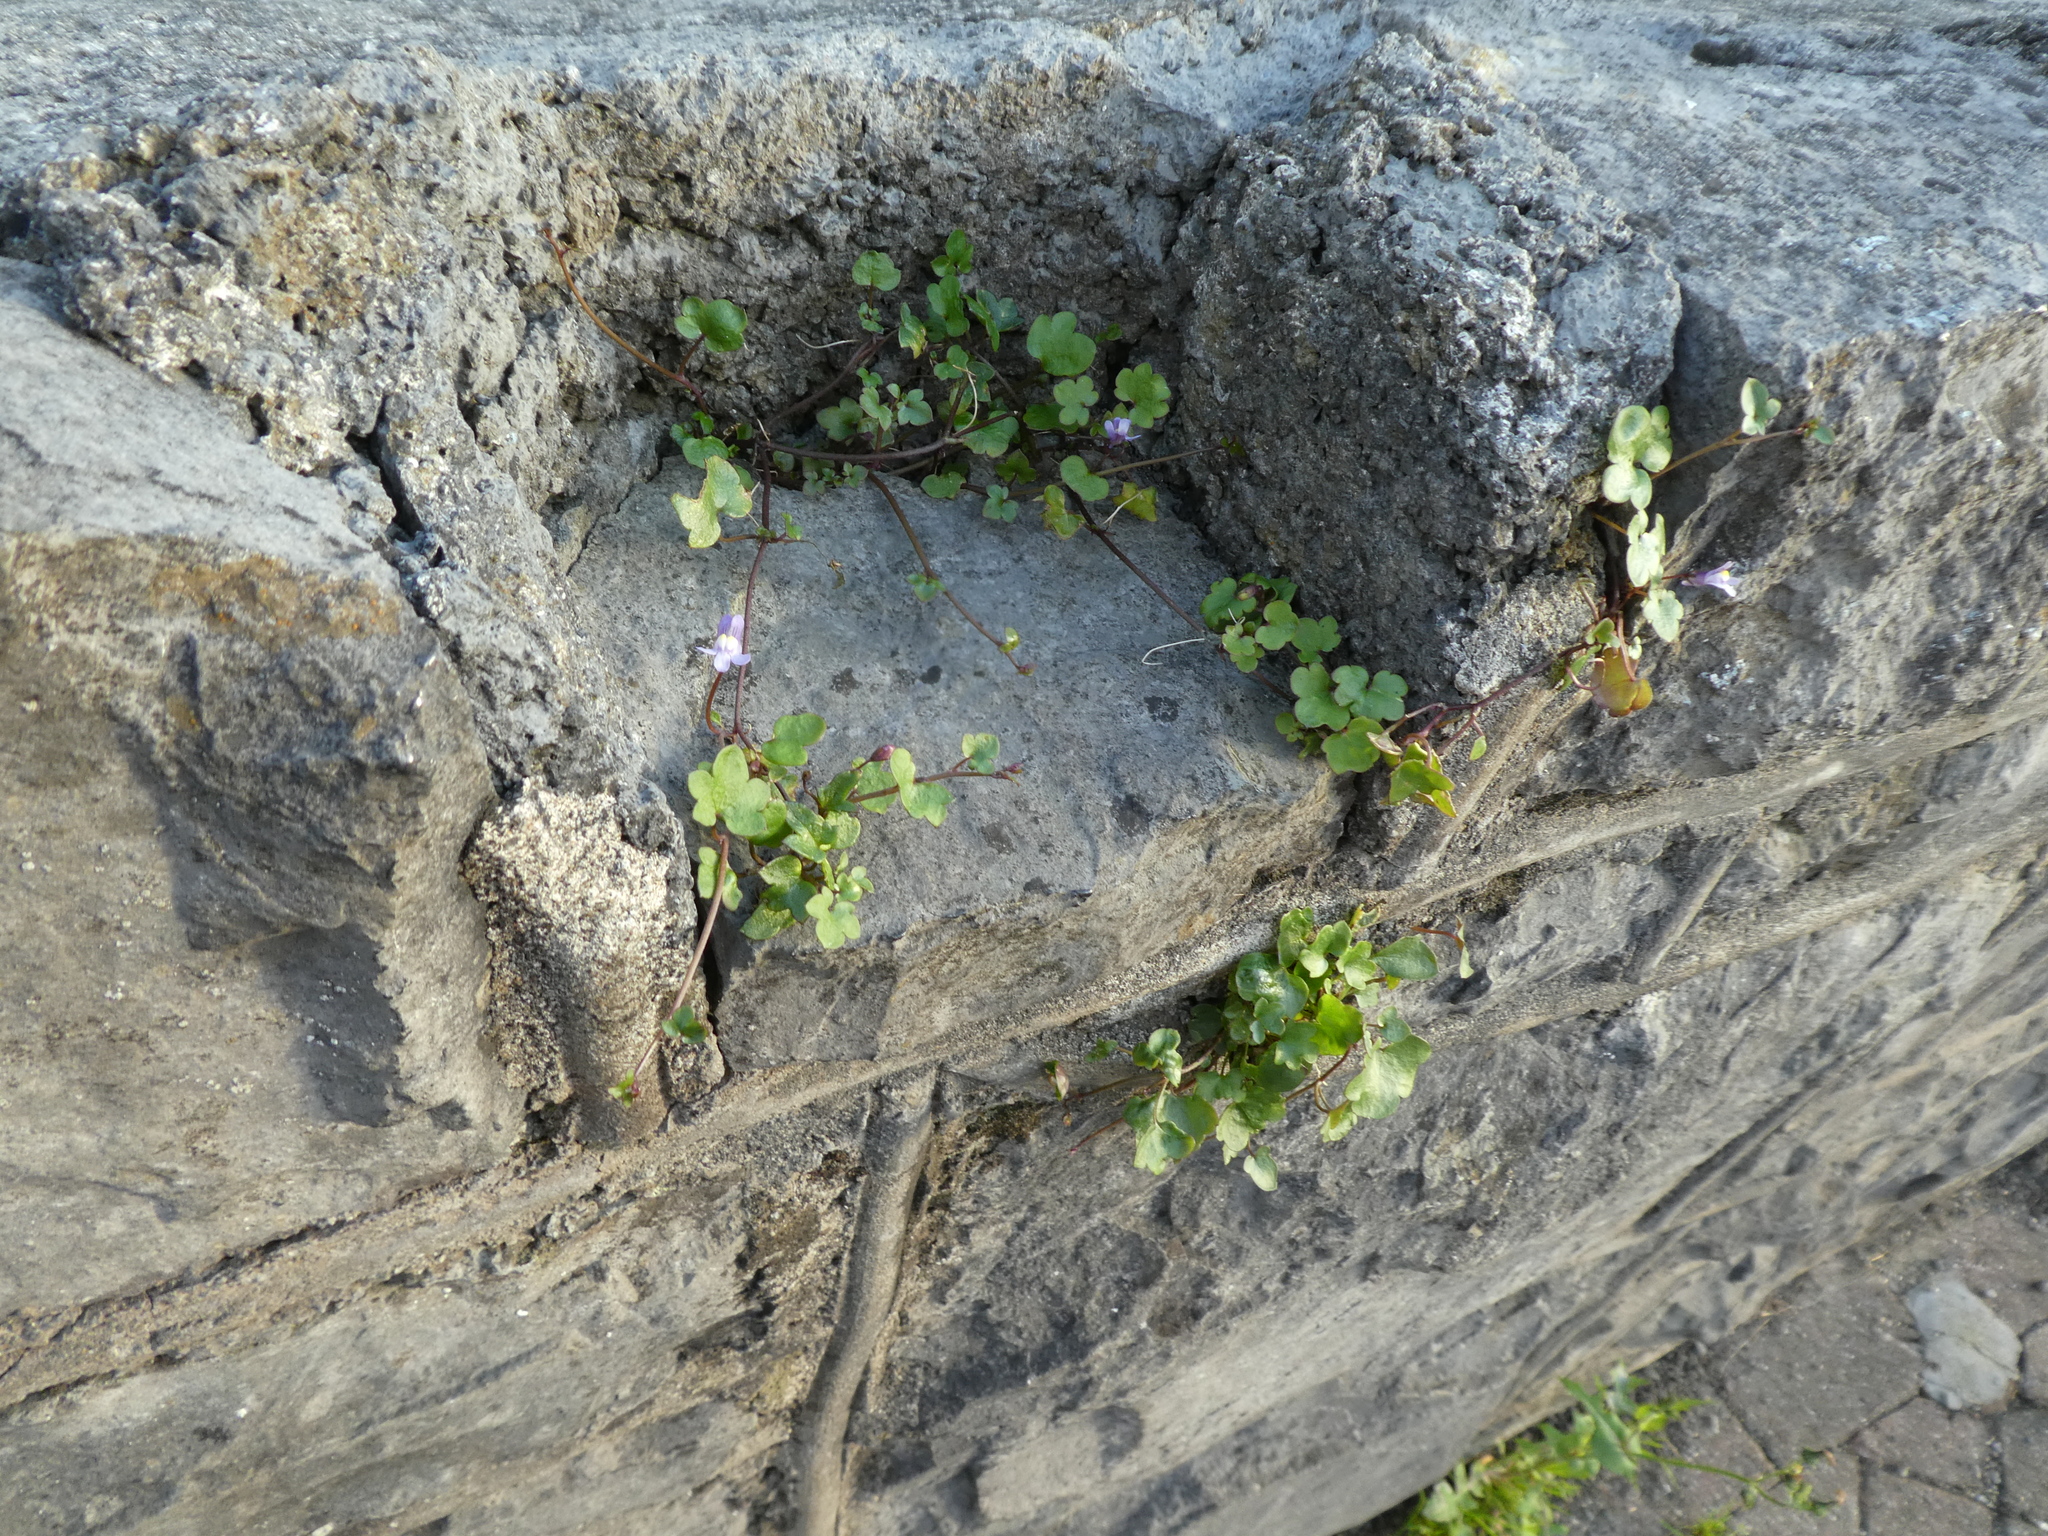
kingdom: Plantae
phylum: Tracheophyta
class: Magnoliopsida
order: Lamiales
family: Plantaginaceae
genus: Cymbalaria
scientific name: Cymbalaria muralis
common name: Ivy-leaved toadflax
